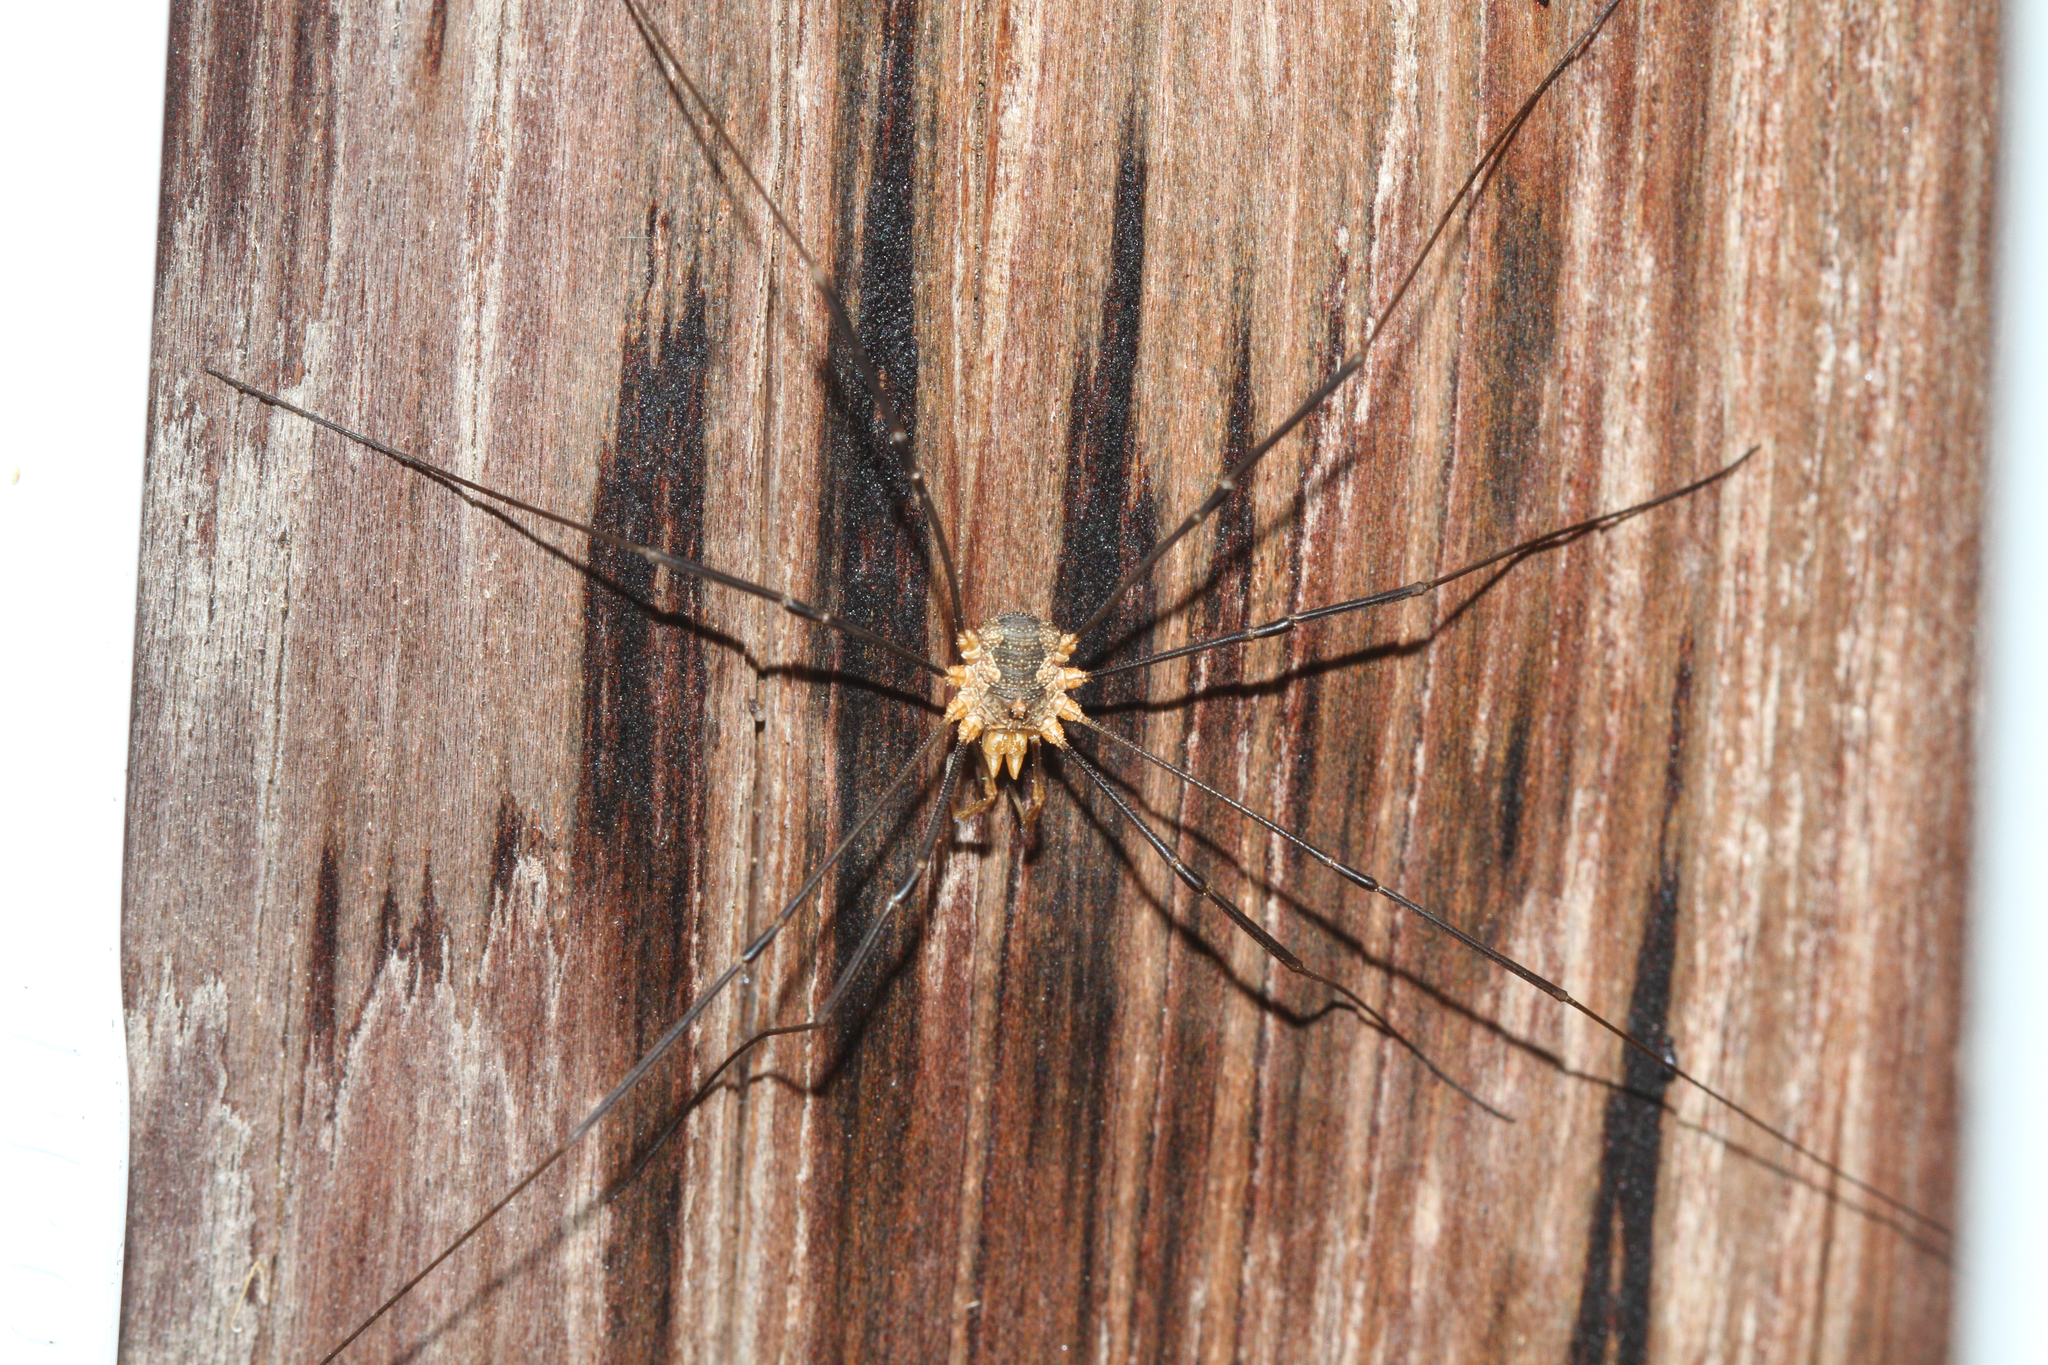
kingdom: Animalia
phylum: Arthropoda
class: Arachnida
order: Opiliones
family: Phalangiidae
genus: Phalangium
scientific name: Phalangium opilio
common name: Daddy longleg
